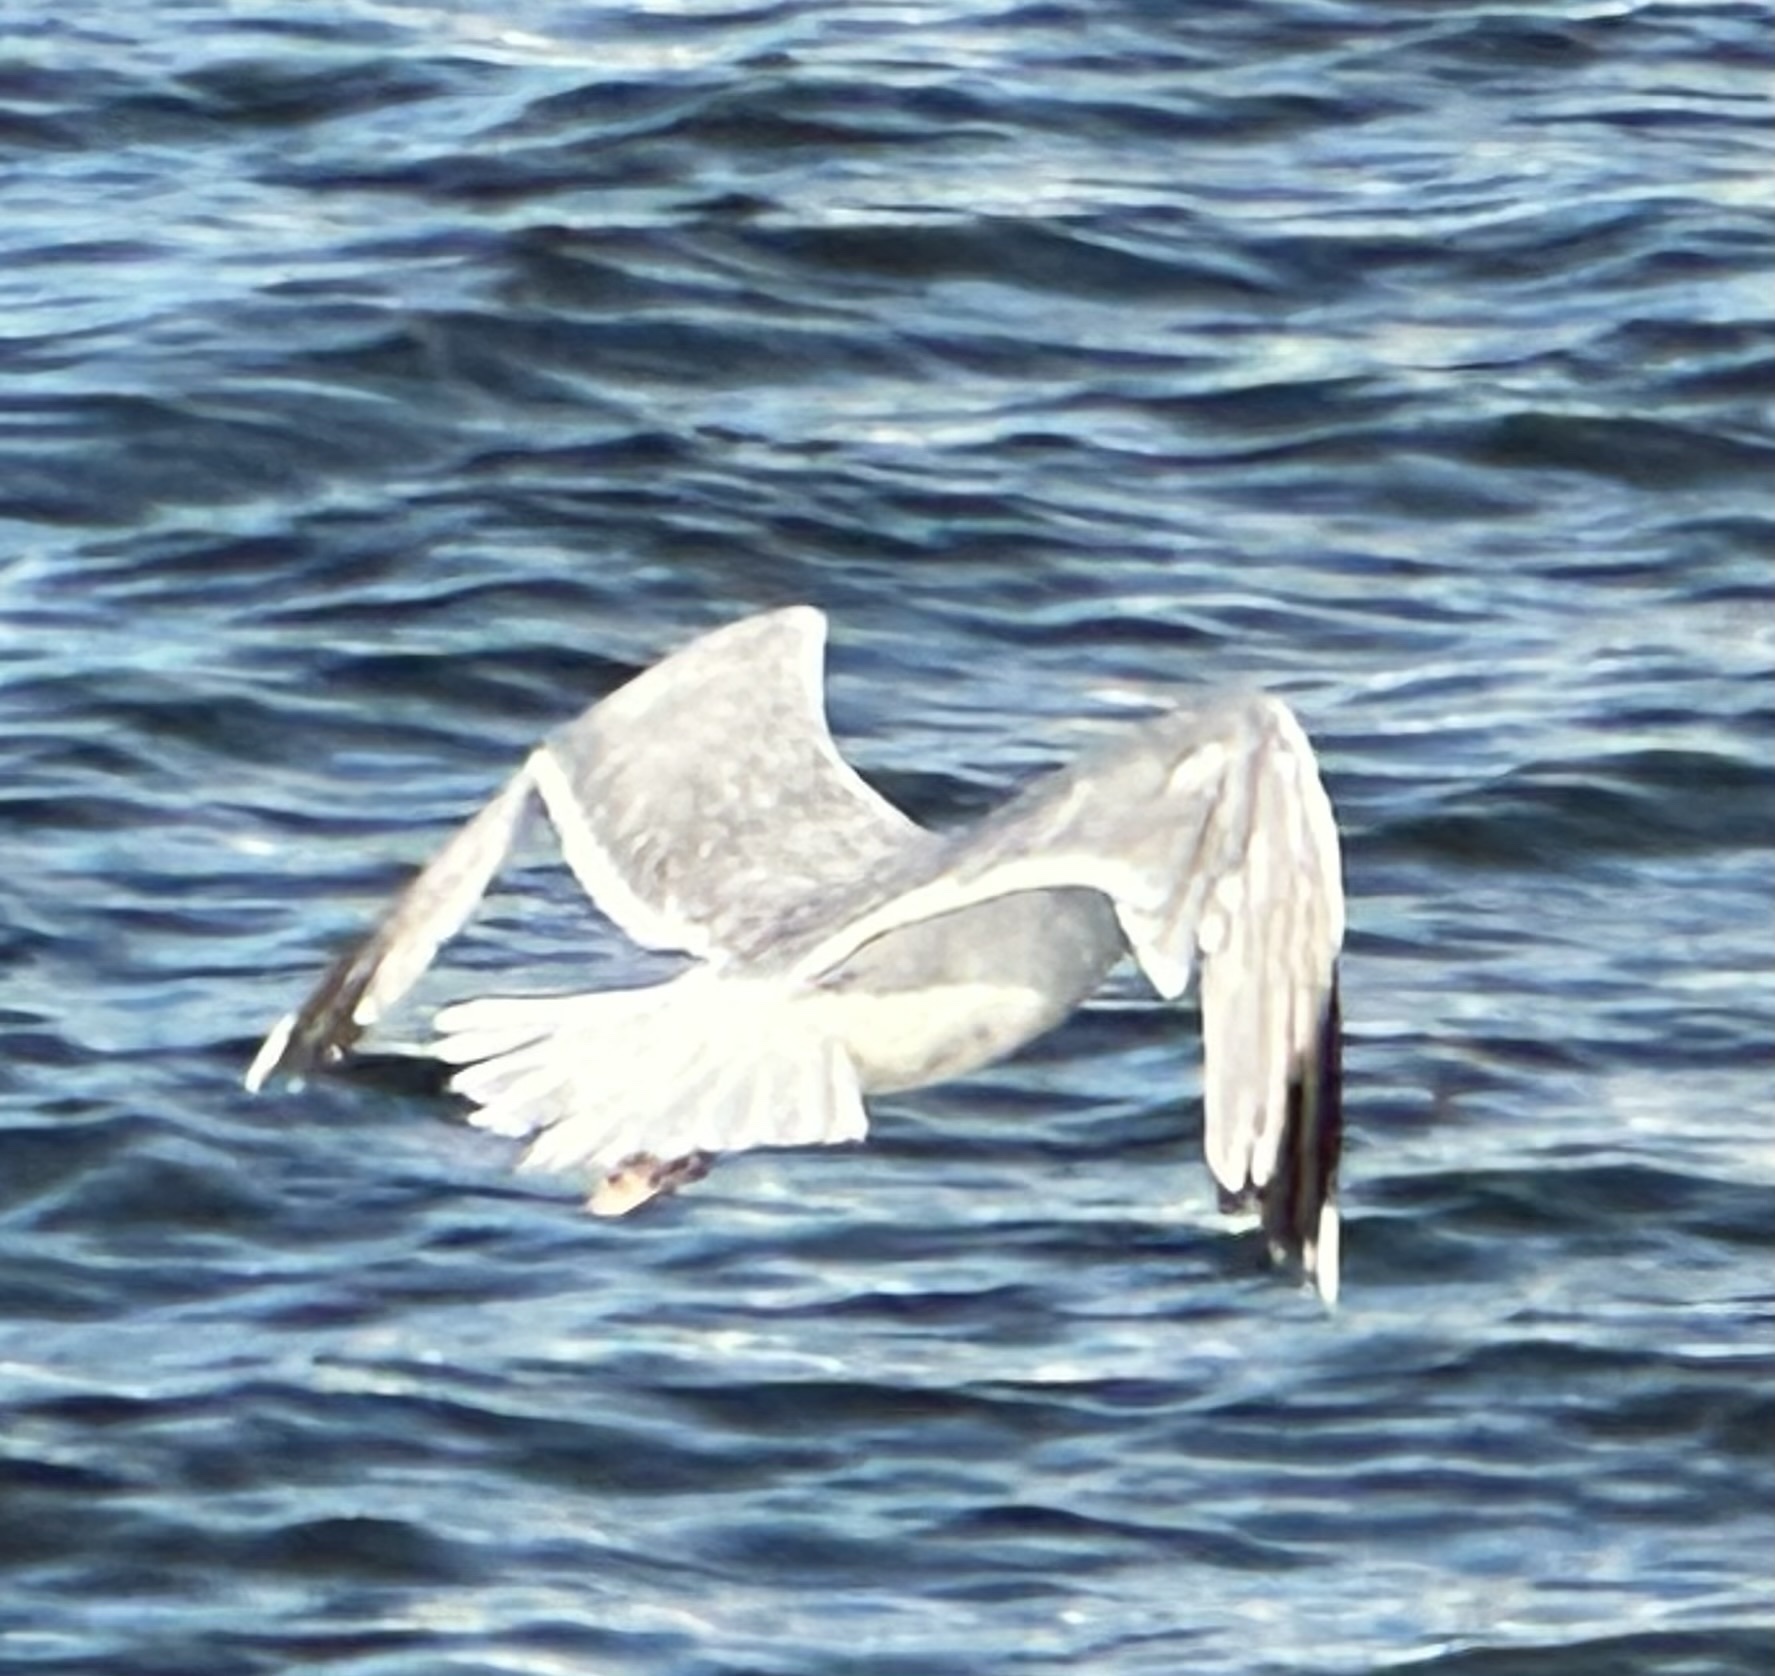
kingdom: Animalia
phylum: Chordata
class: Aves
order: Charadriiformes
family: Laridae
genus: Larus
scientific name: Larus argentatus
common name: Herring gull
